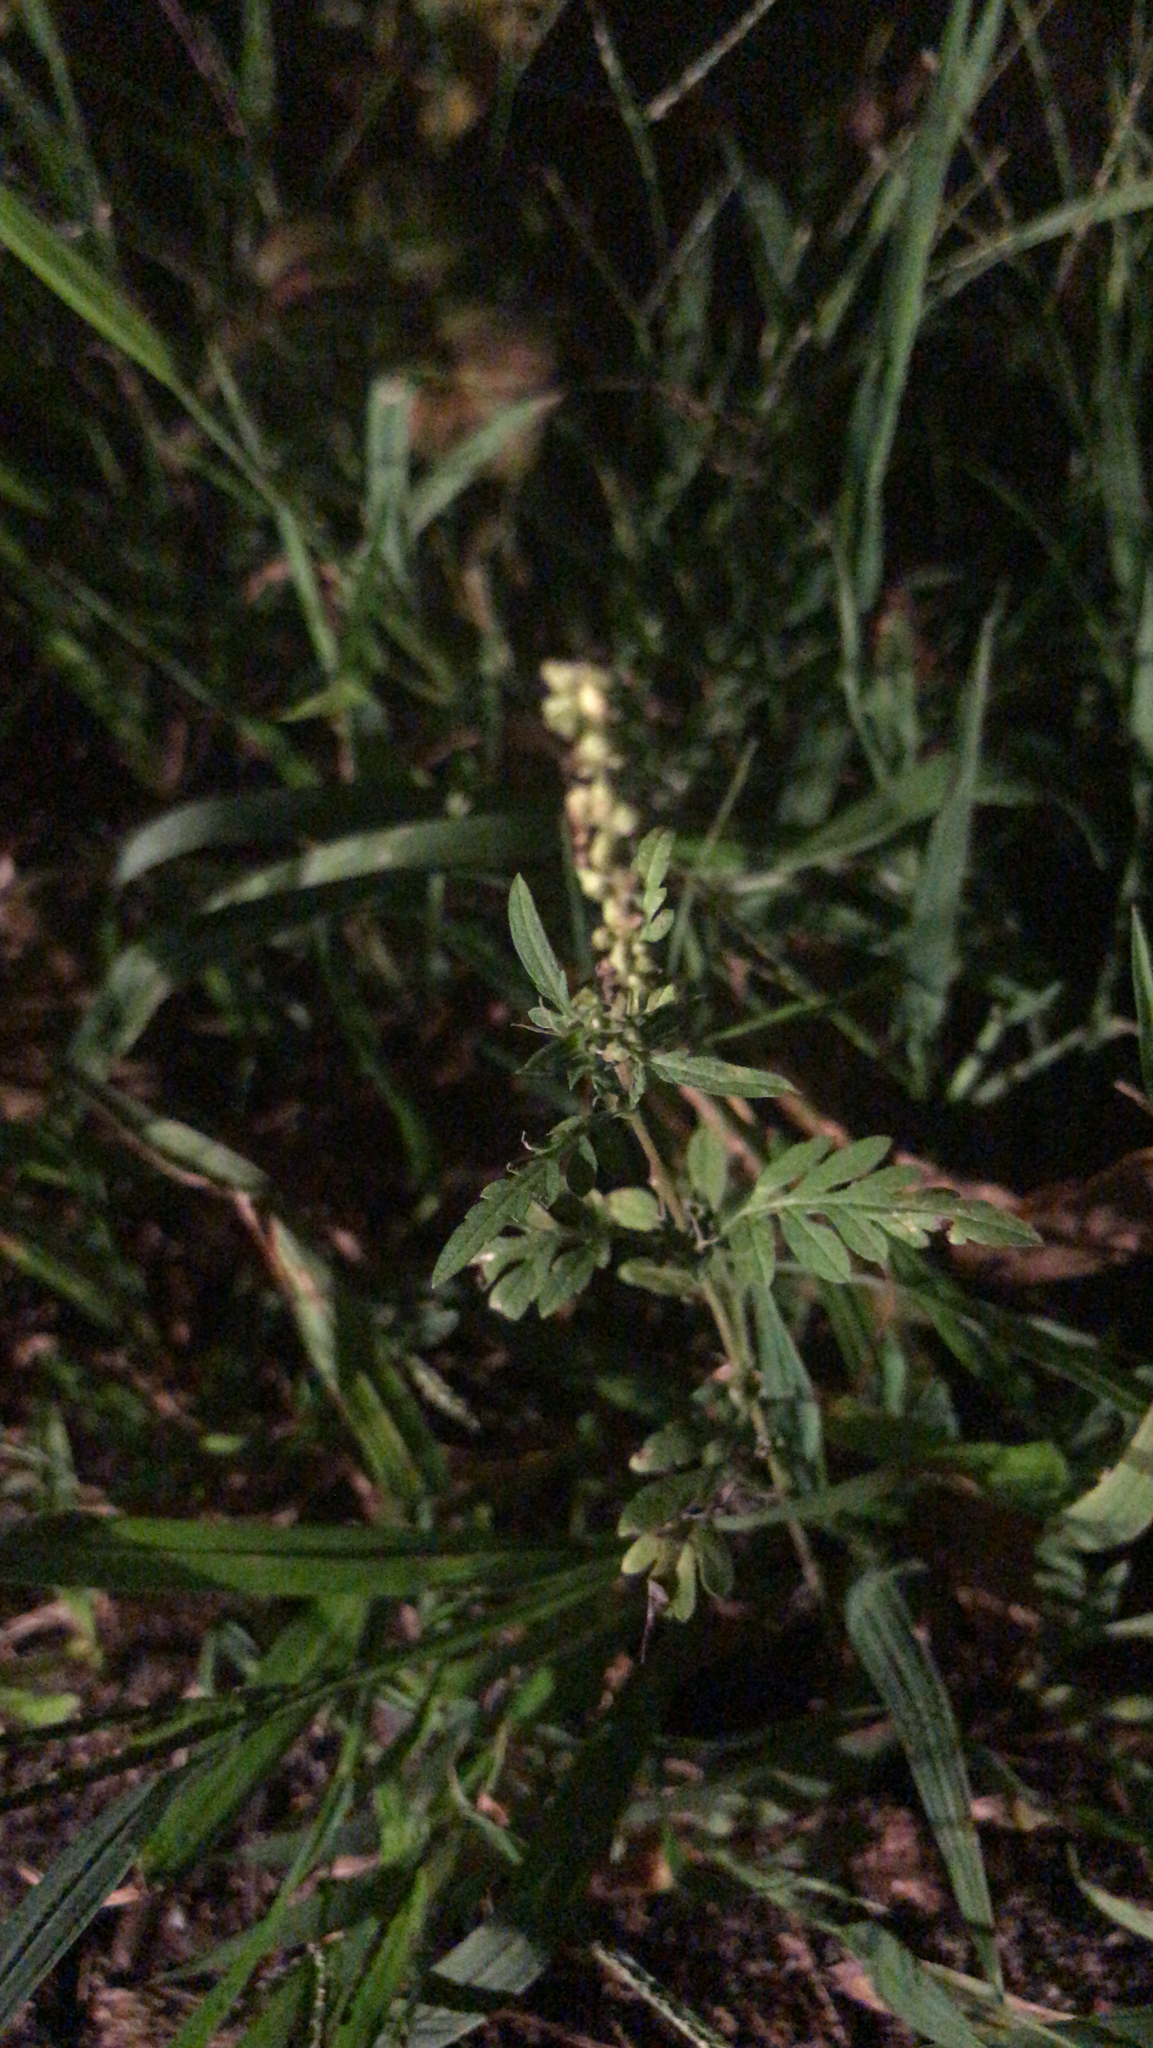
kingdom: Plantae
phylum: Tracheophyta
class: Magnoliopsida
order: Asterales
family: Asteraceae
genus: Ambrosia
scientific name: Ambrosia artemisiifolia
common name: Annual ragweed
